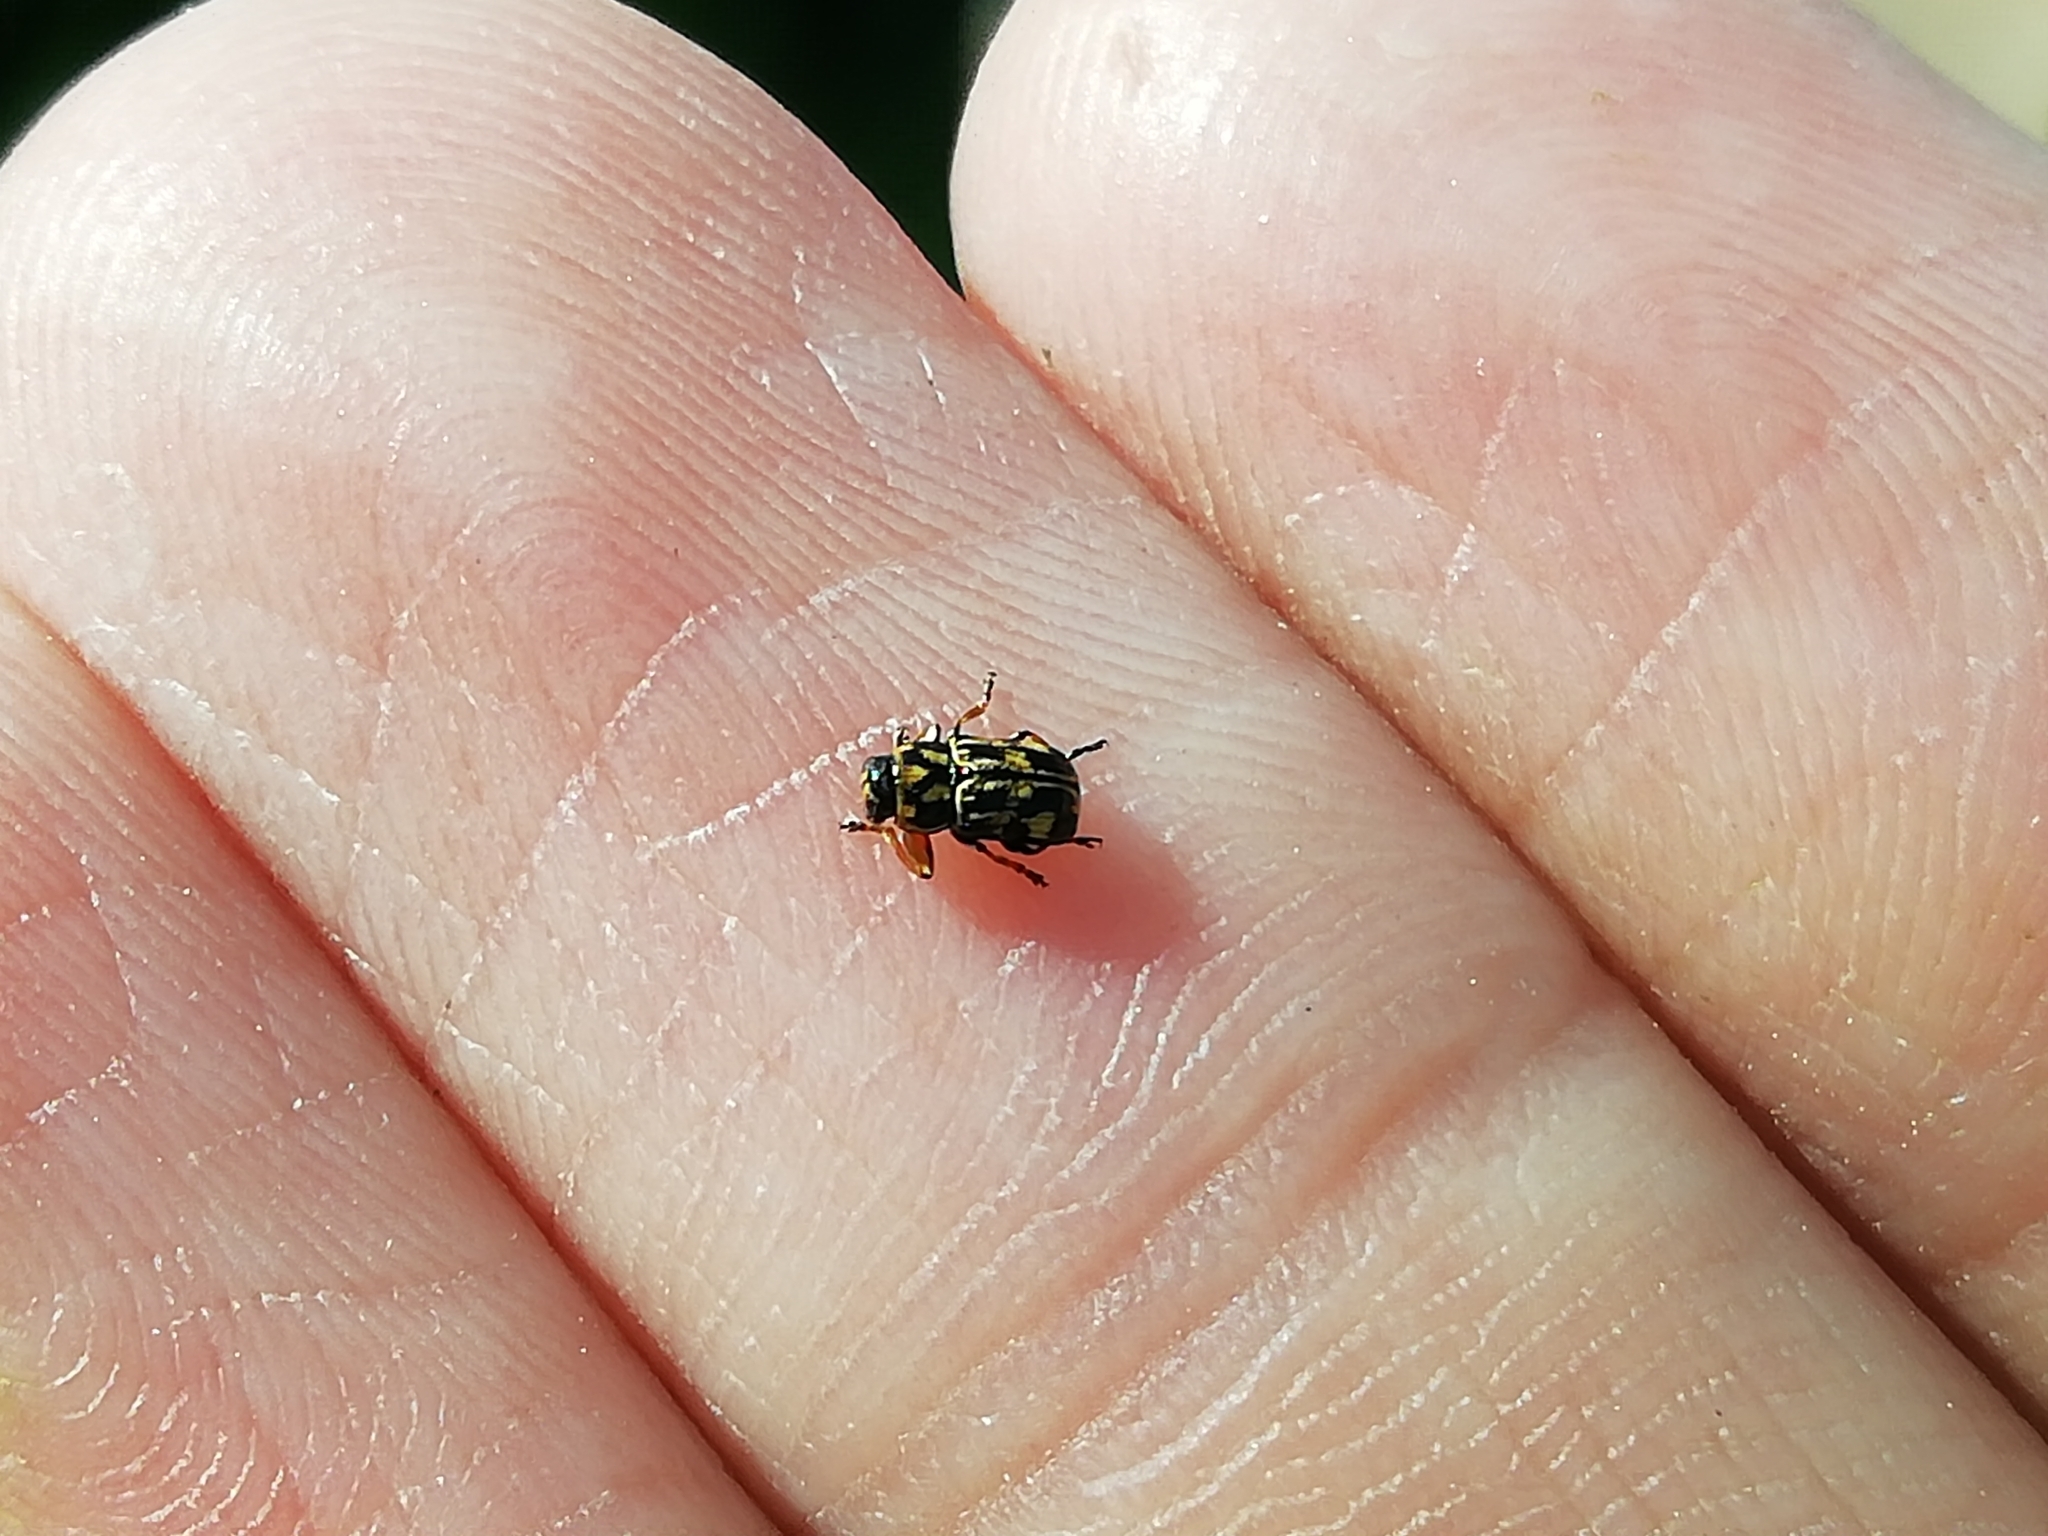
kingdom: Animalia
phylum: Arthropoda
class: Insecta
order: Coleoptera
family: Chrysomelidae
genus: Pachybrachis
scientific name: Pachybrachis hieroglyphicus
